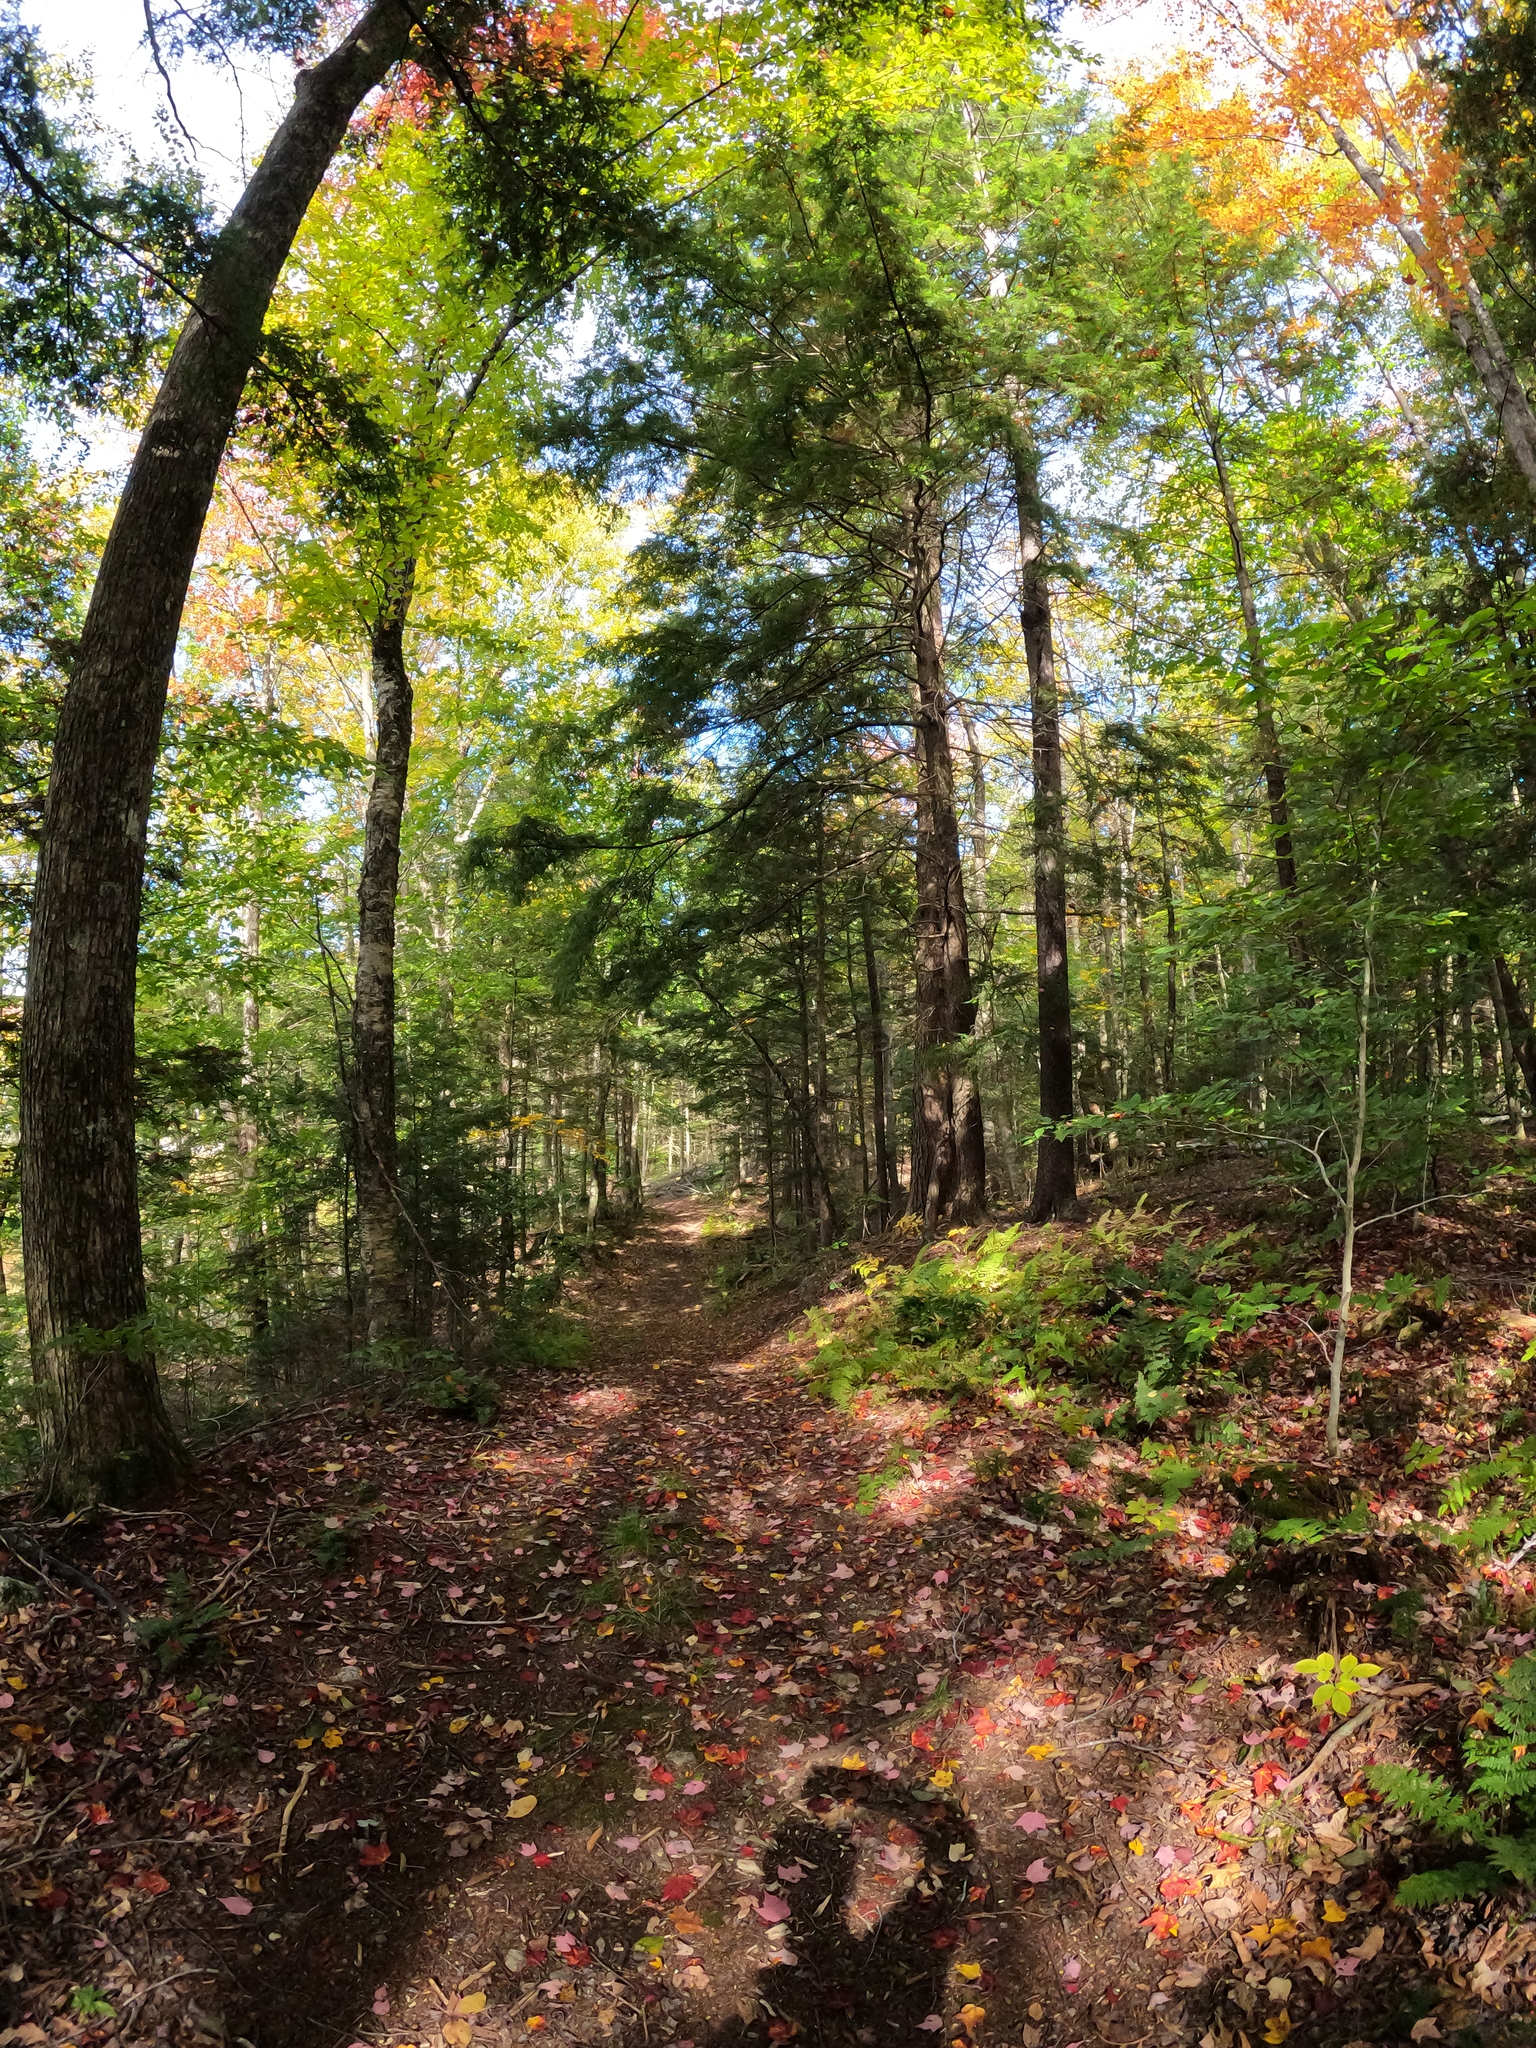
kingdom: Plantae
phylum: Tracheophyta
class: Pinopsida
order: Pinales
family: Pinaceae
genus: Tsuga
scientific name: Tsuga canadensis
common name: Eastern hemlock
